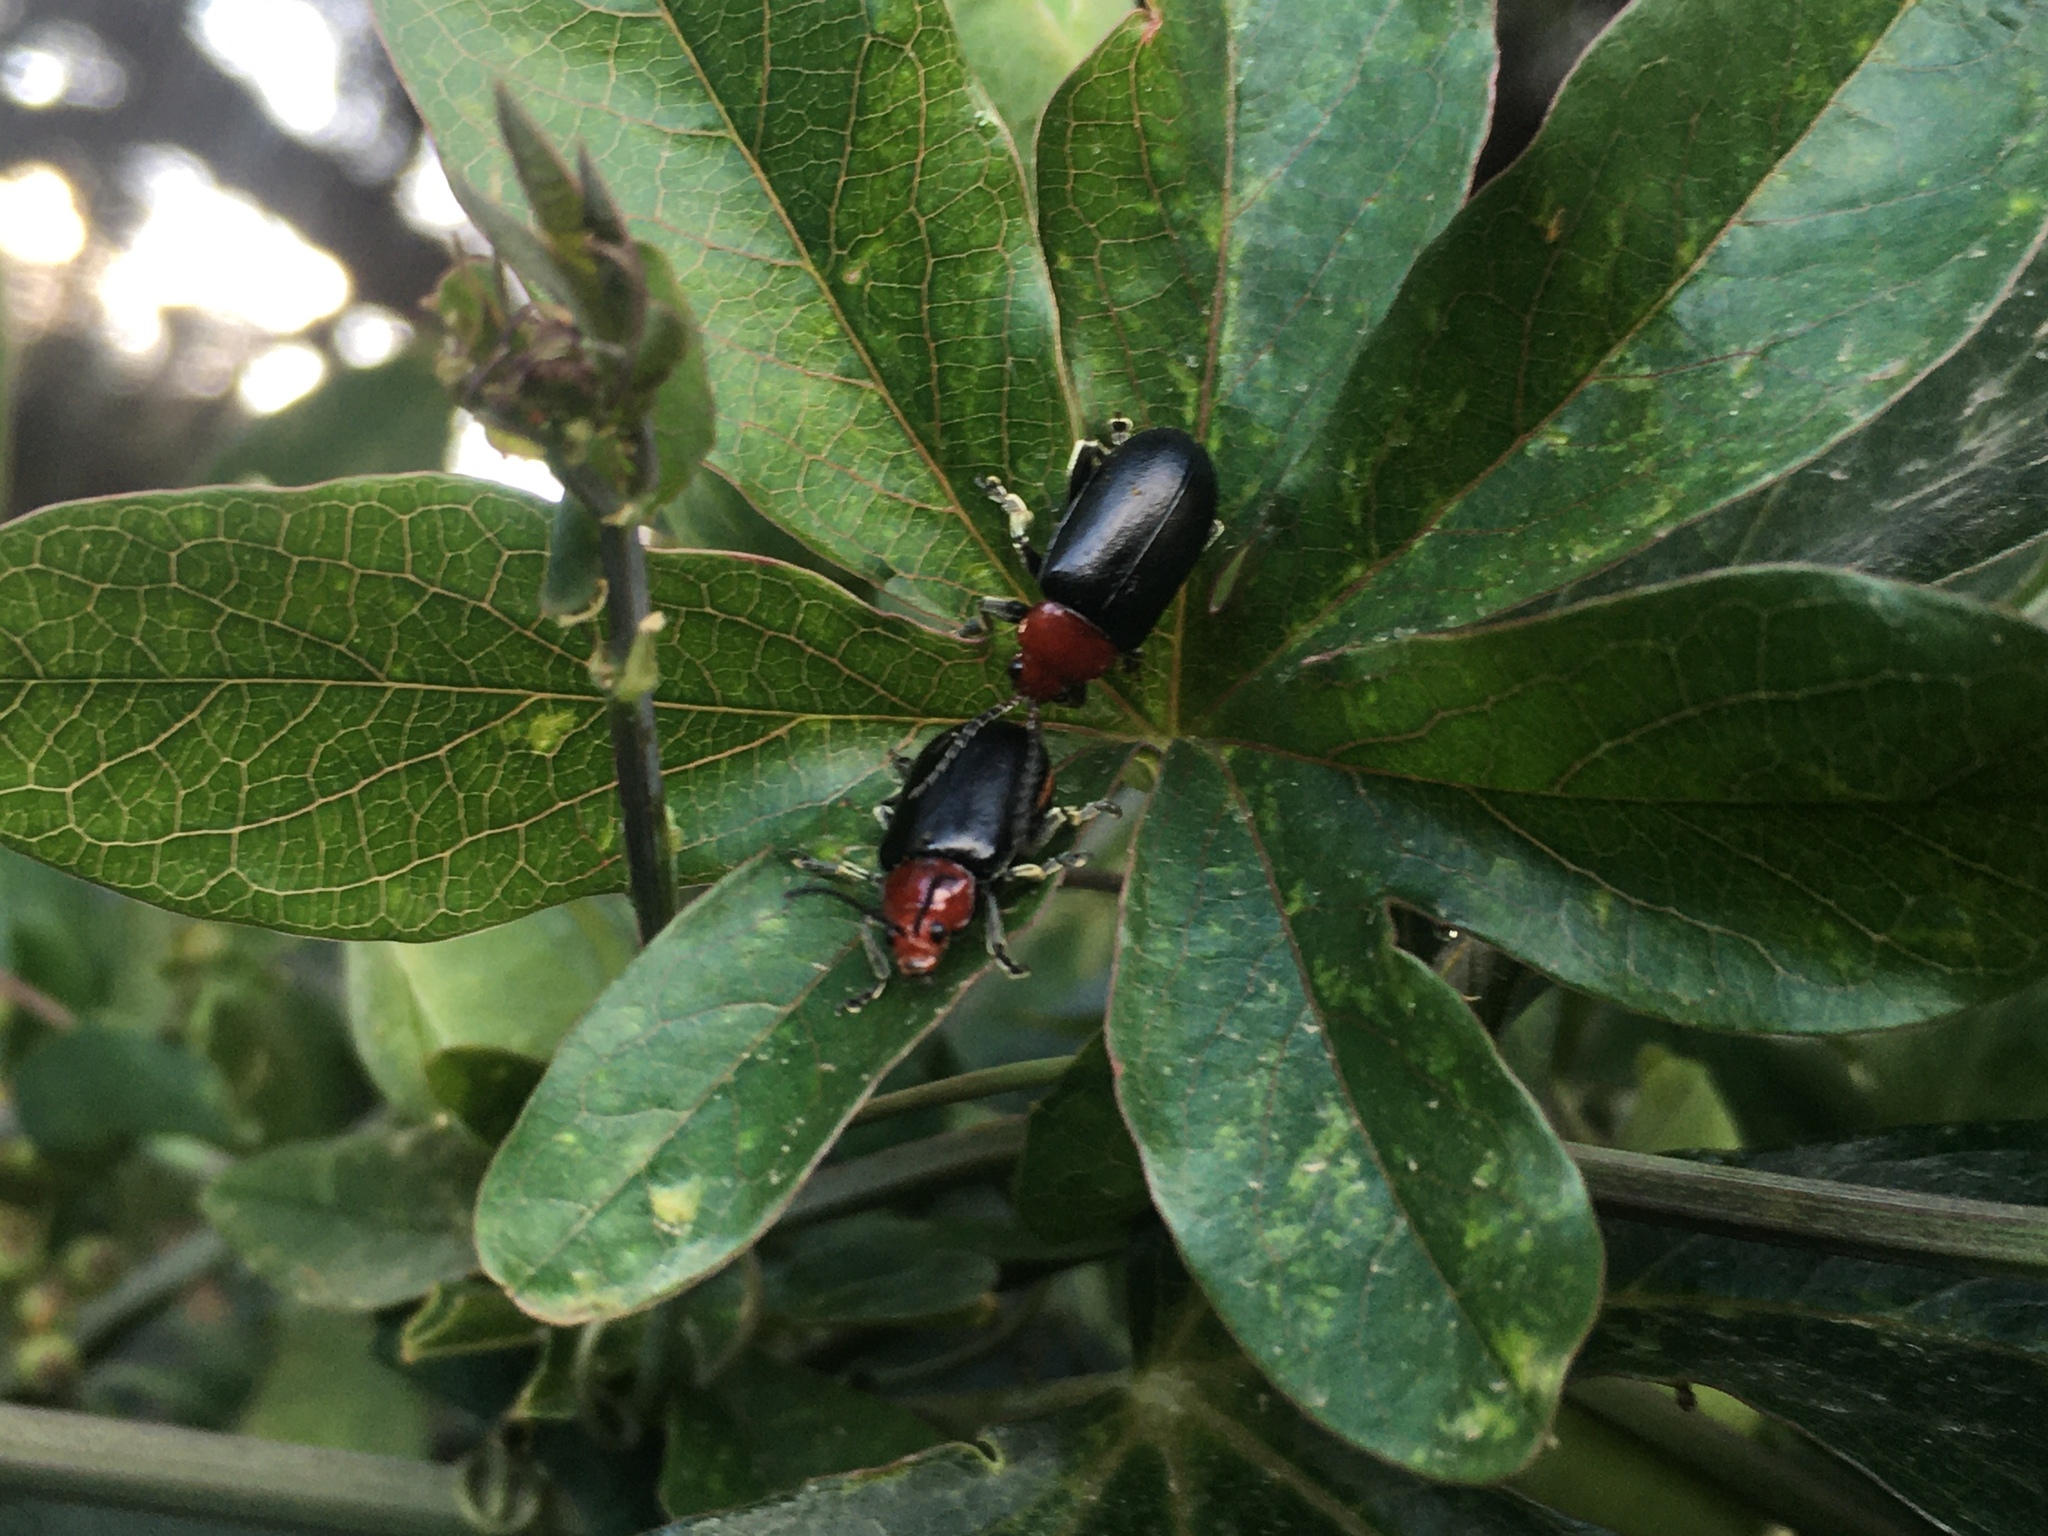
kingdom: Animalia
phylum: Arthropoda
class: Insecta
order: Coleoptera
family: Chrysomelidae
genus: Cacoscelis
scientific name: Cacoscelis
